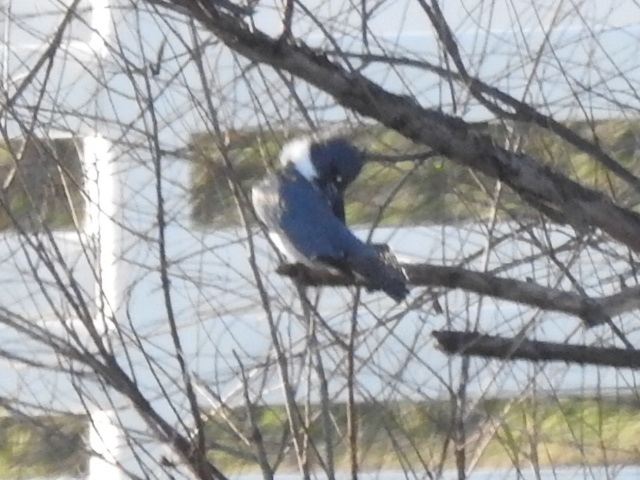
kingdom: Animalia
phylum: Chordata
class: Aves
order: Coraciiformes
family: Alcedinidae
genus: Megaceryle
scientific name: Megaceryle alcyon
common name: Belted kingfisher
